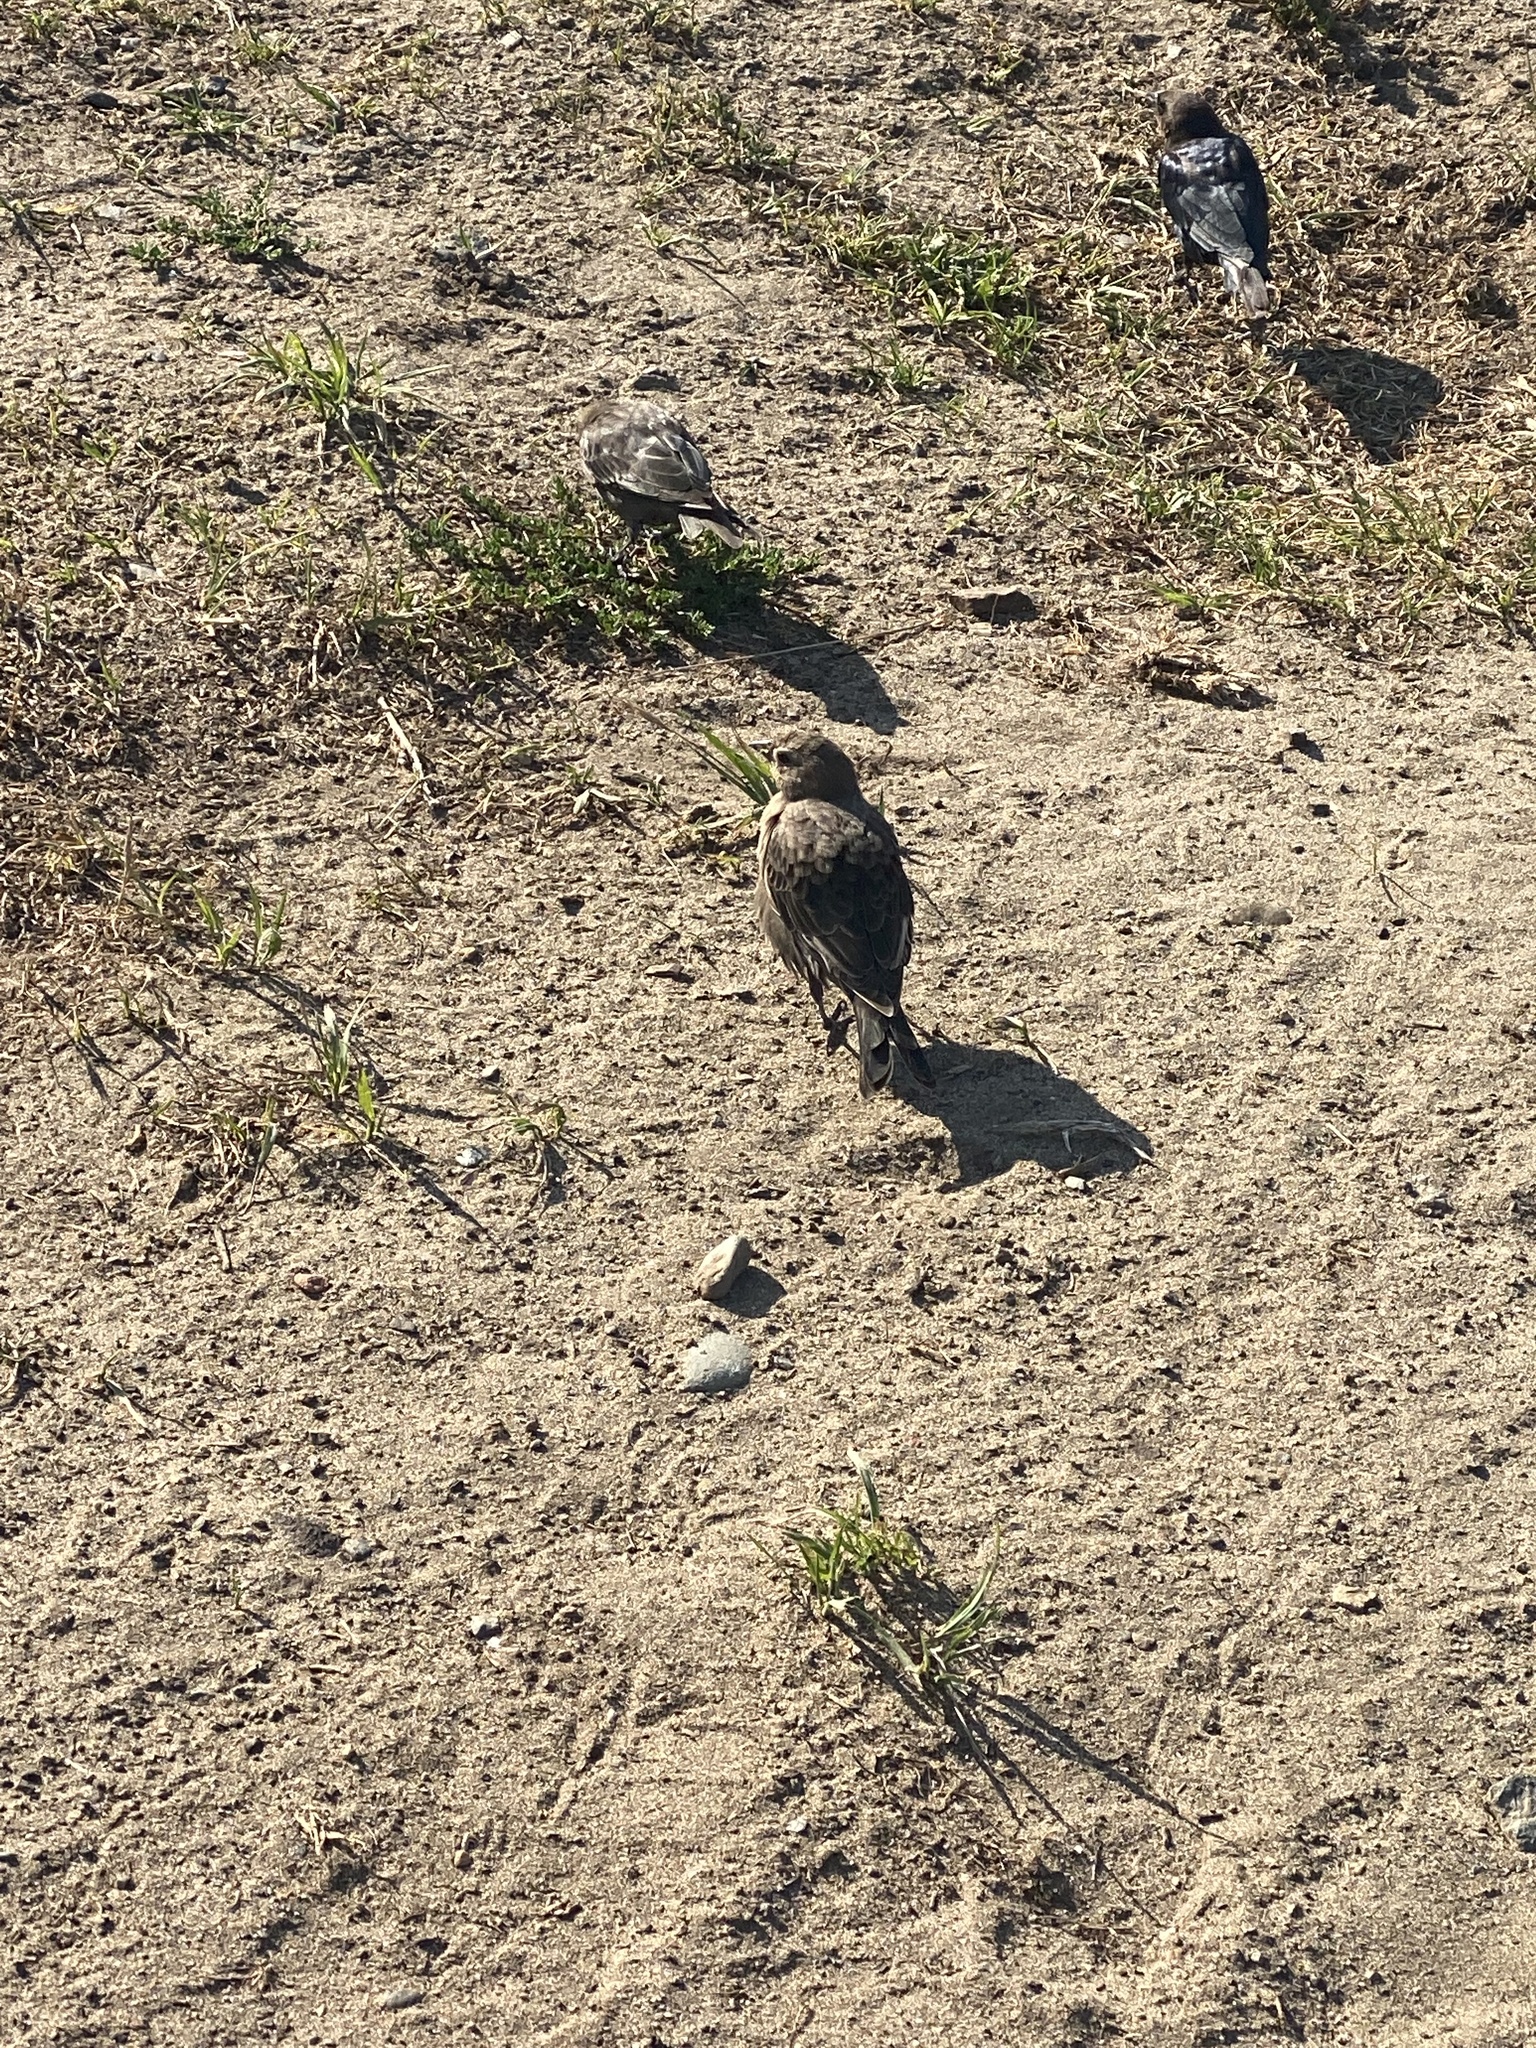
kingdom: Animalia
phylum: Chordata
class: Aves
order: Passeriformes
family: Icteridae
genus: Euphagus
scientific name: Euphagus cyanocephalus
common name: Brewer's blackbird
